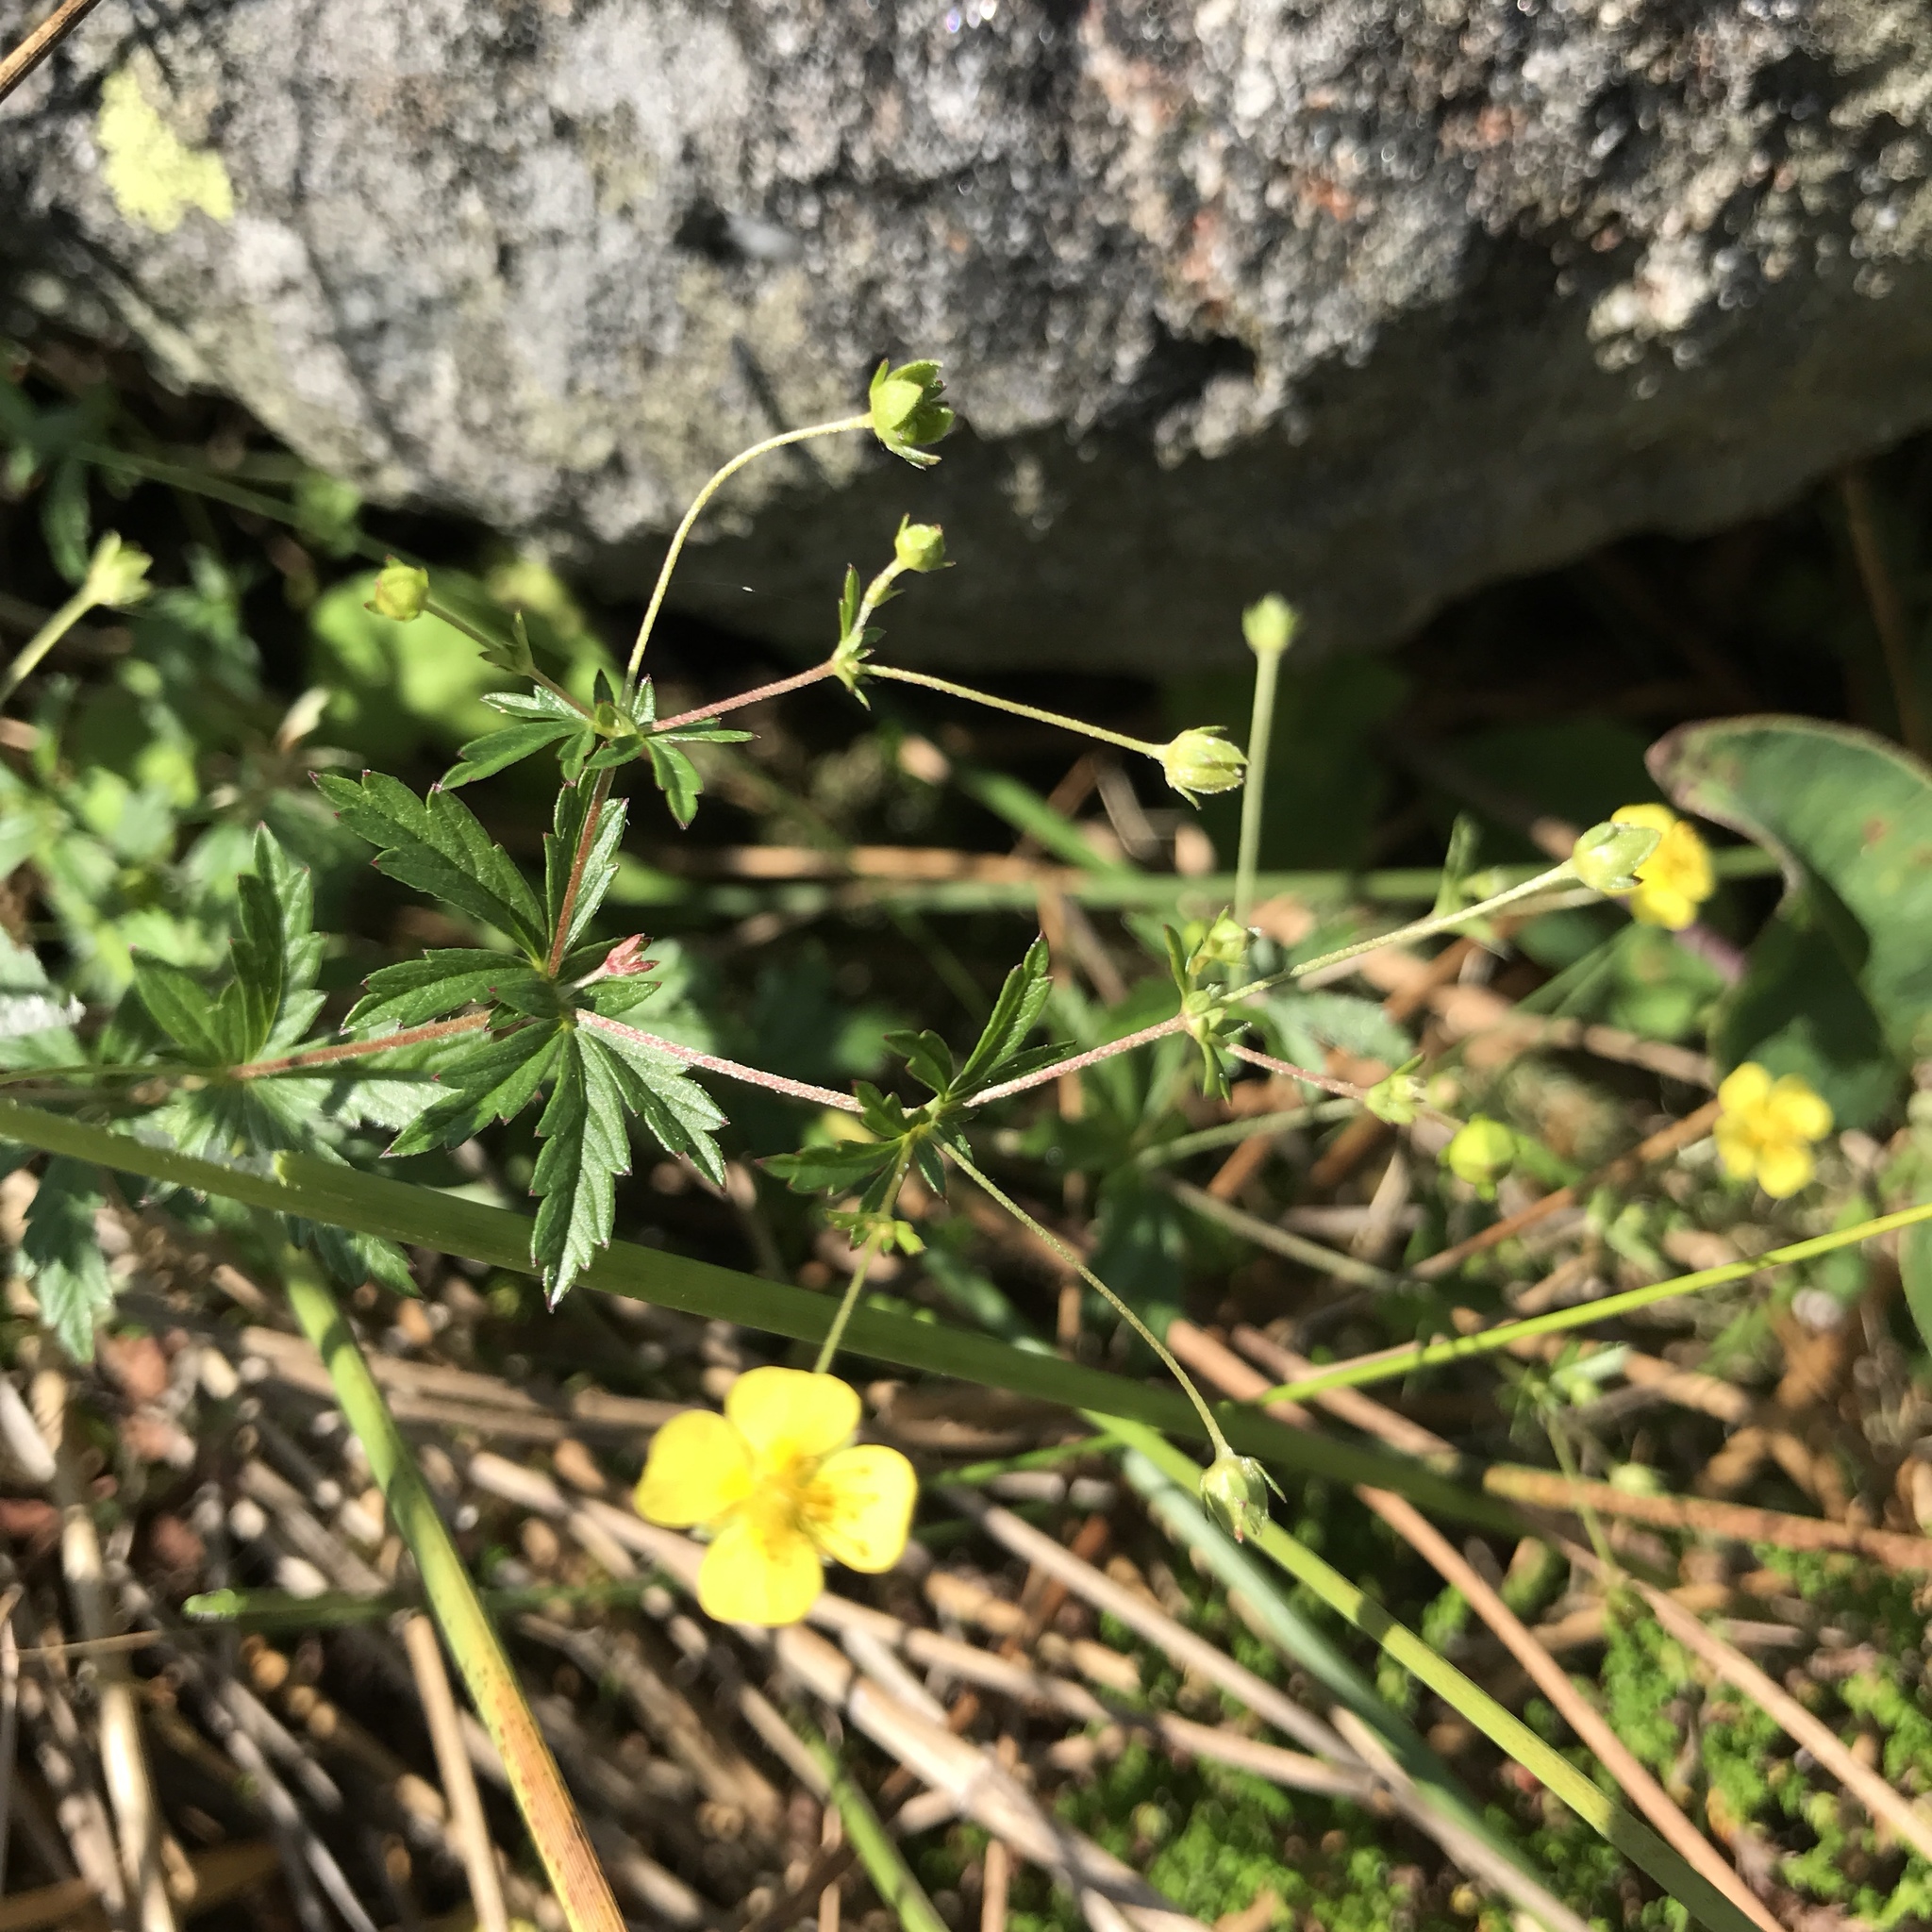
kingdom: Plantae
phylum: Tracheophyta
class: Magnoliopsida
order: Rosales
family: Rosaceae
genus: Potentilla
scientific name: Potentilla erecta
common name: Tormentil
